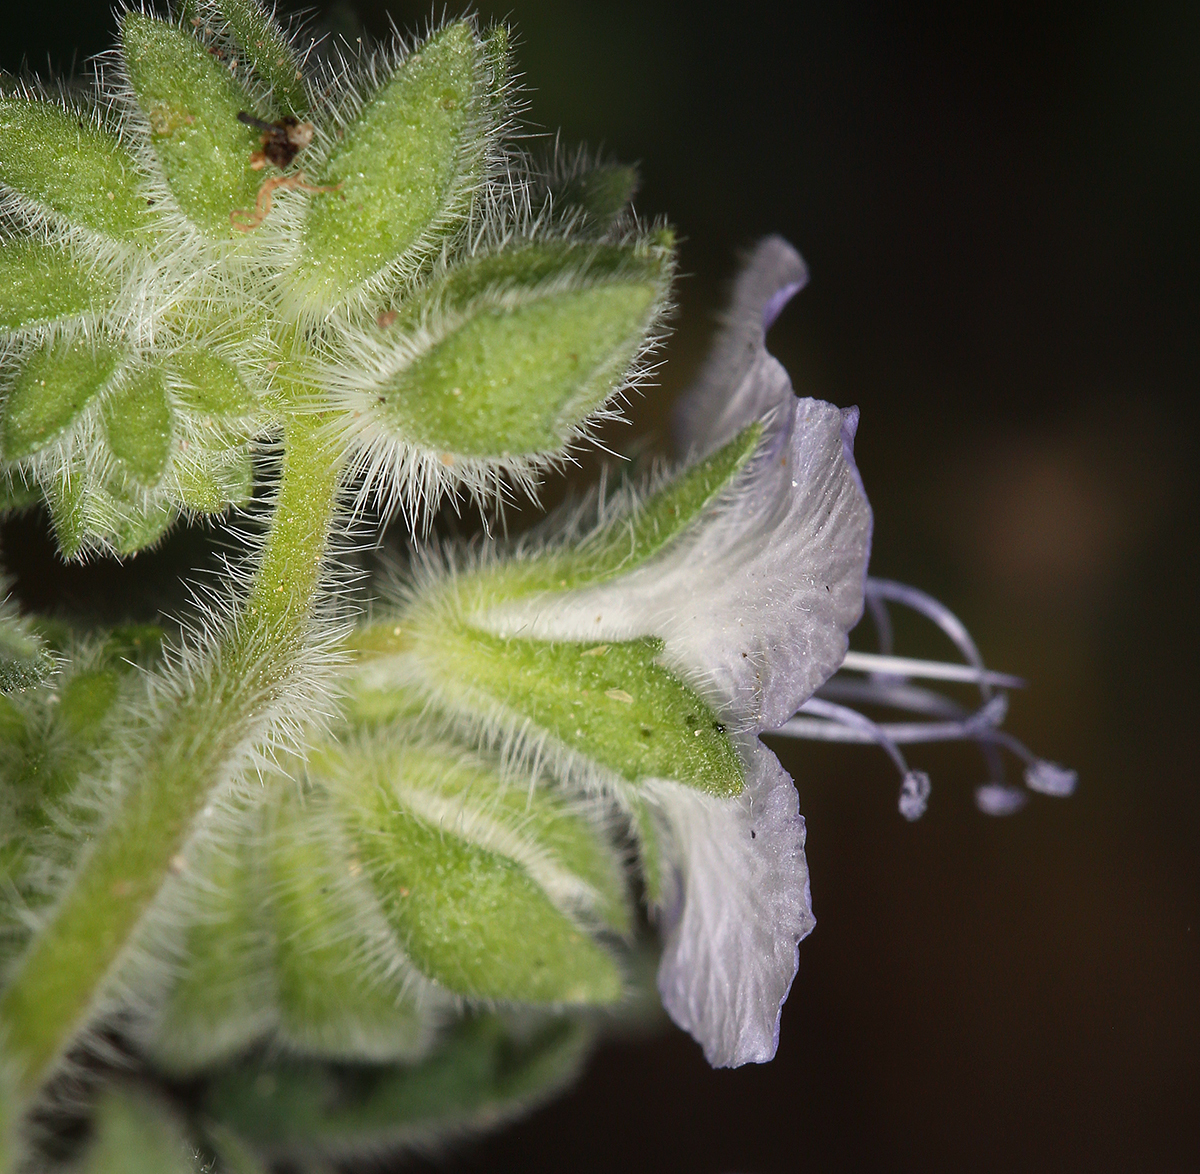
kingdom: Plantae
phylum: Tracheophyta
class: Magnoliopsida
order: Boraginales
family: Hydrophyllaceae
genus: Phacelia
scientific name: Phacelia distans
